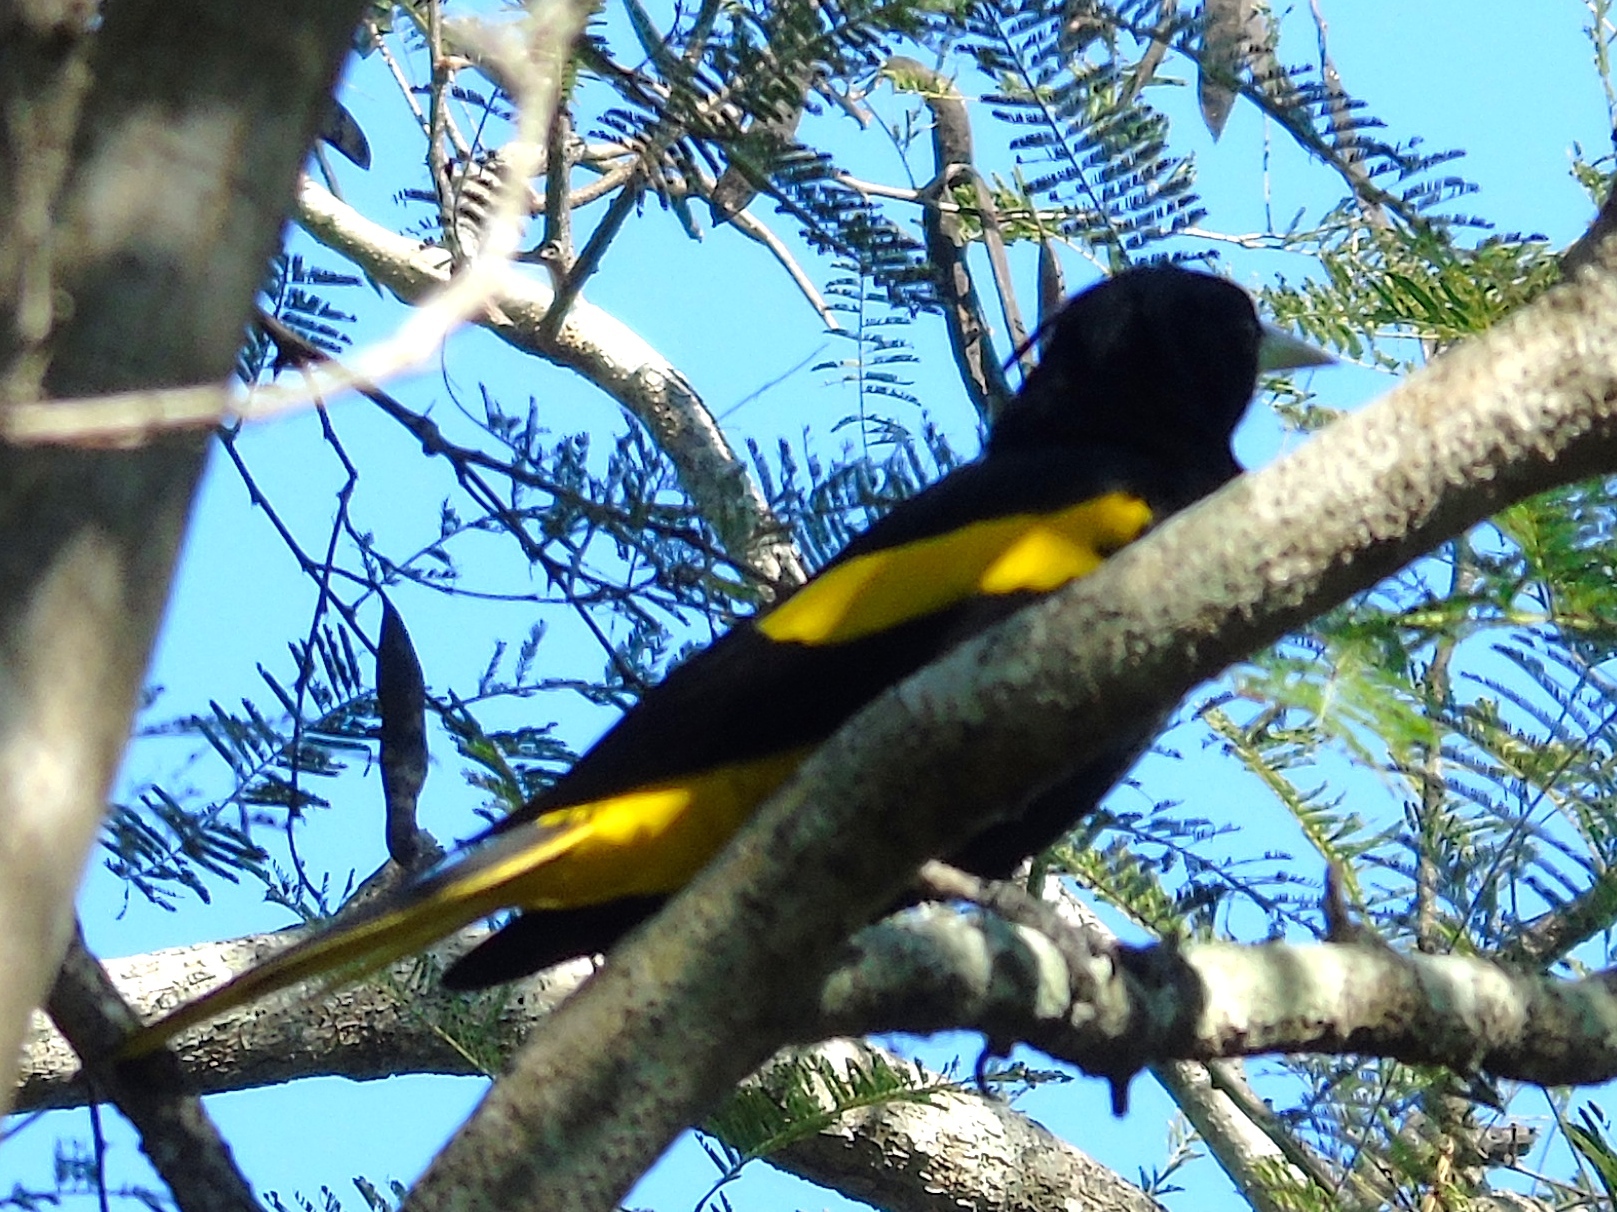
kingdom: Animalia
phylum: Chordata
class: Aves
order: Passeriformes
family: Icteridae
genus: Cacicus
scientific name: Cacicus melanicterus
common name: Yellow-winged cacique
